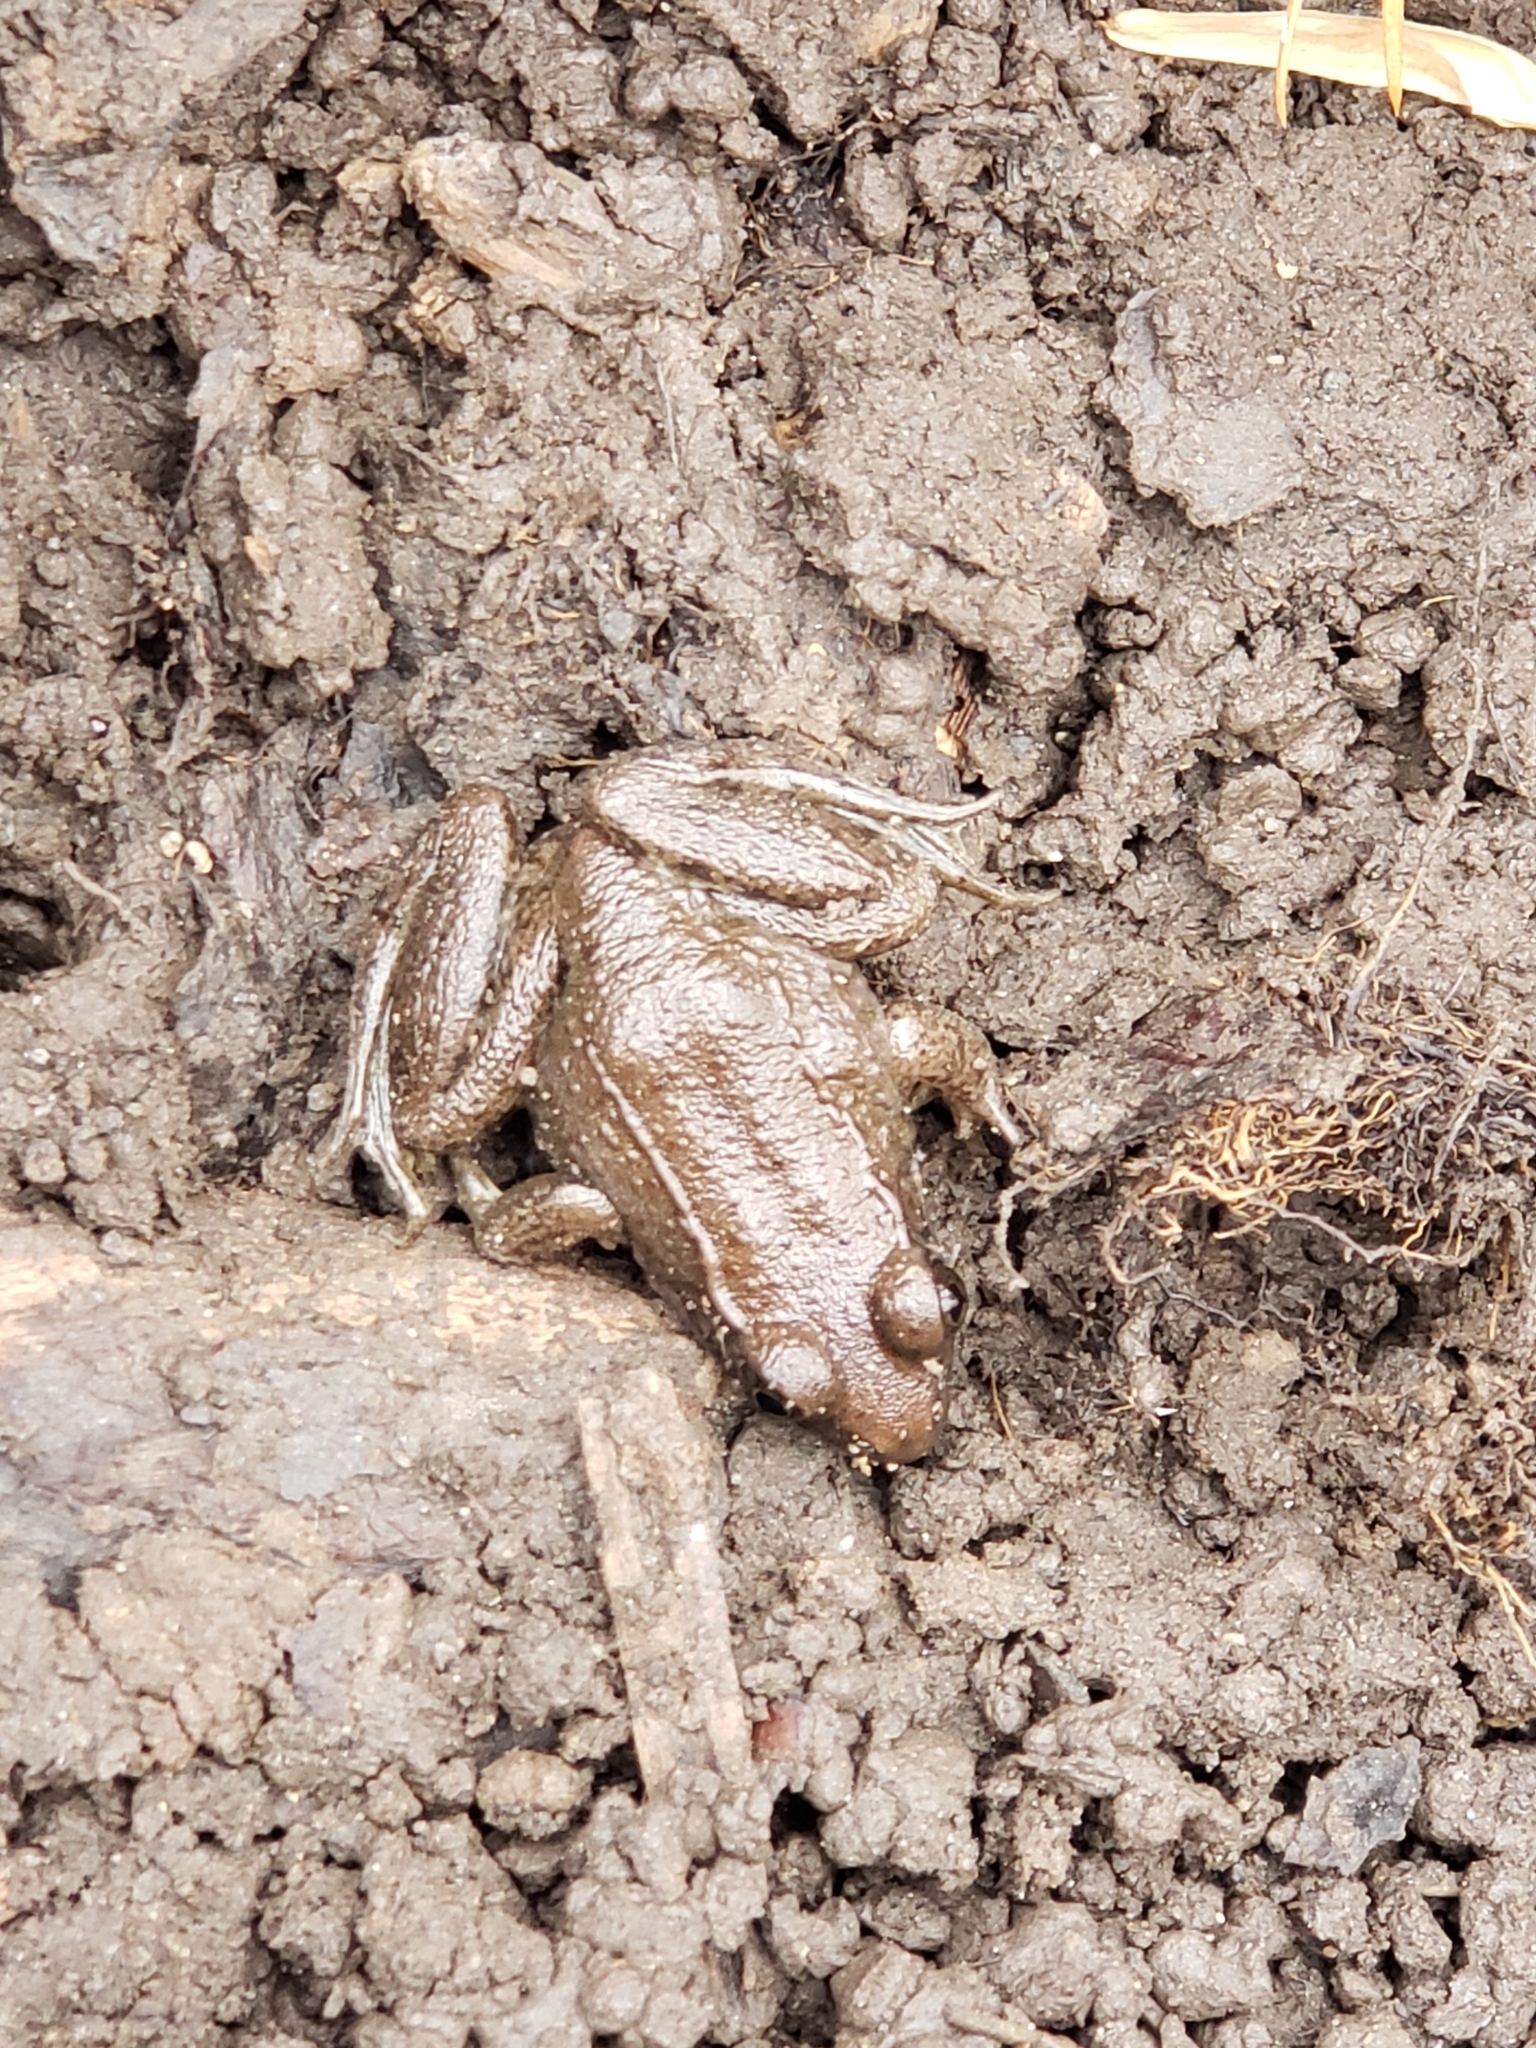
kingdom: Animalia
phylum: Chordata
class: Amphibia
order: Anura
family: Ranidae
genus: Lithobates
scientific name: Lithobates clamitans
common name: Green frog
